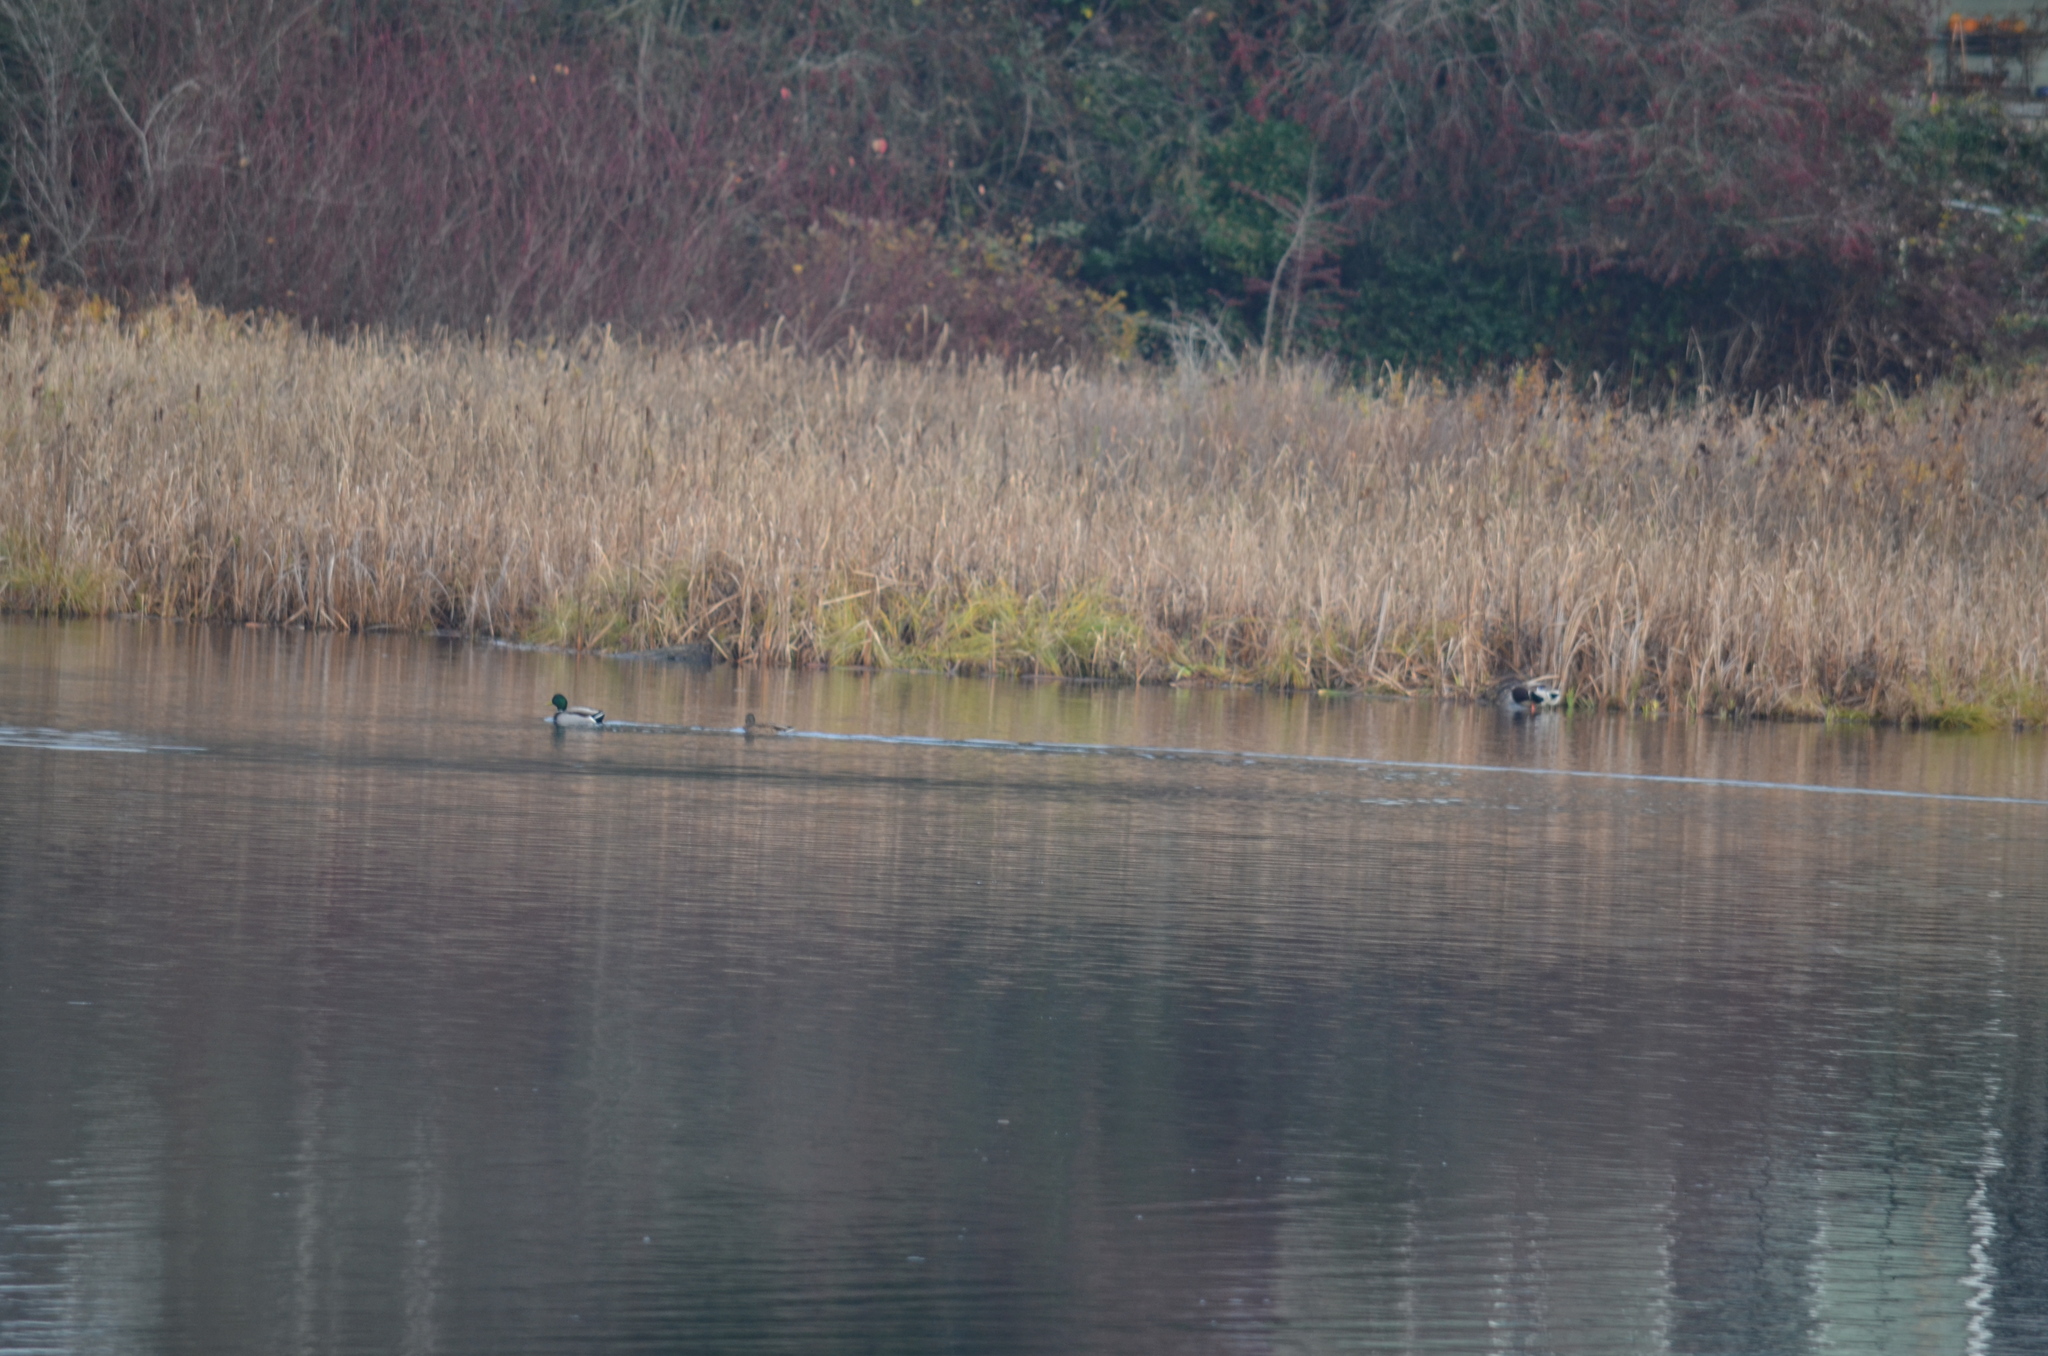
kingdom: Animalia
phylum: Chordata
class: Aves
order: Anseriformes
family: Anatidae
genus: Anas
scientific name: Anas platyrhynchos
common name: Mallard
